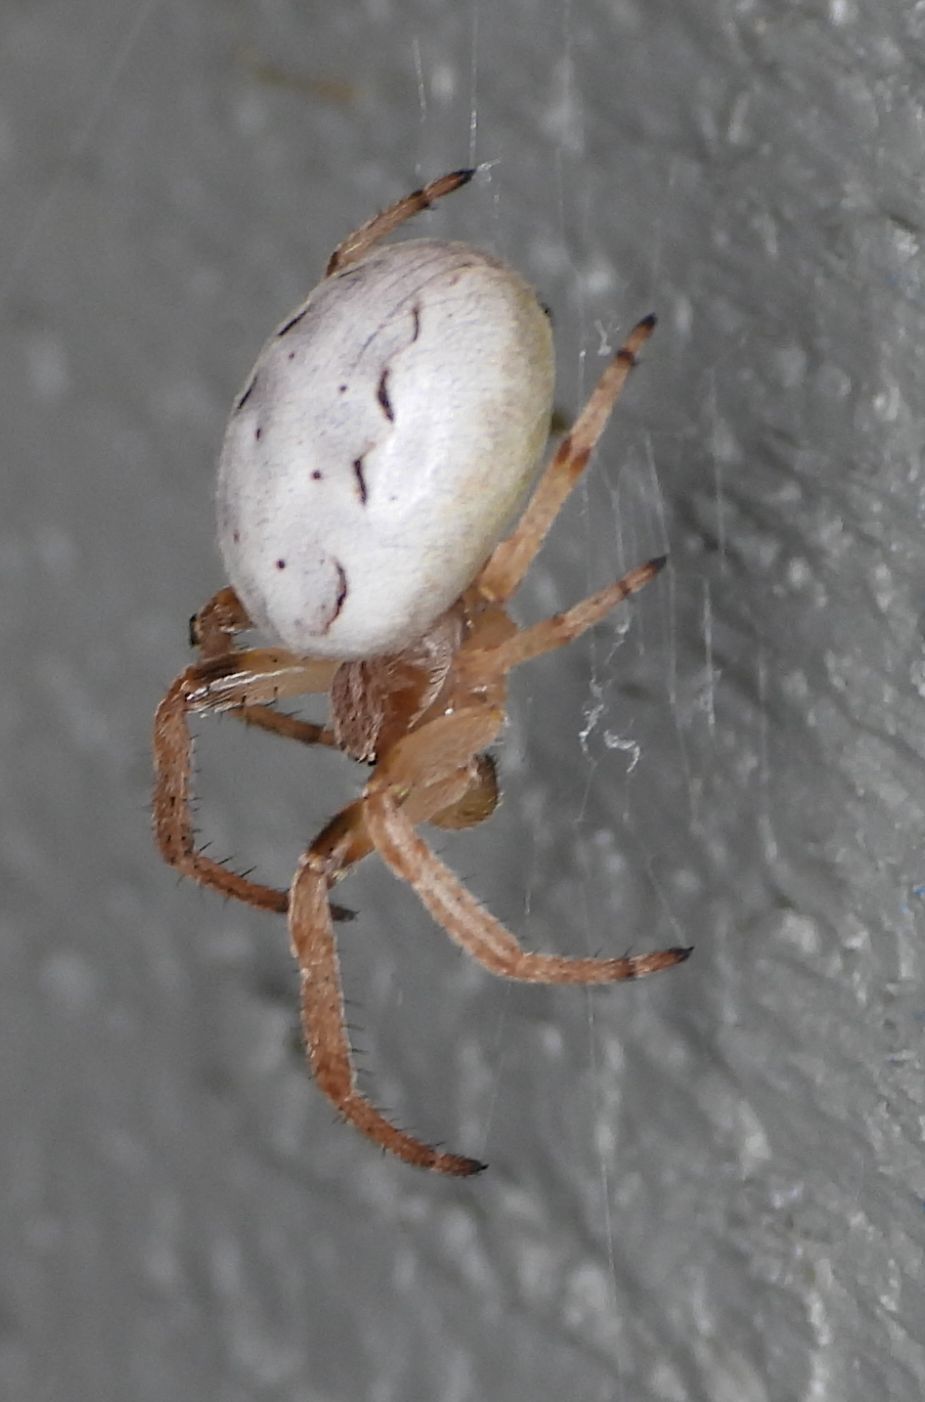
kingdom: Animalia
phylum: Arthropoda
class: Arachnida
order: Araneae
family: Araneidae
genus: Larinioides
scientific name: Larinioides cornutus
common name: Furrow orbweaver
